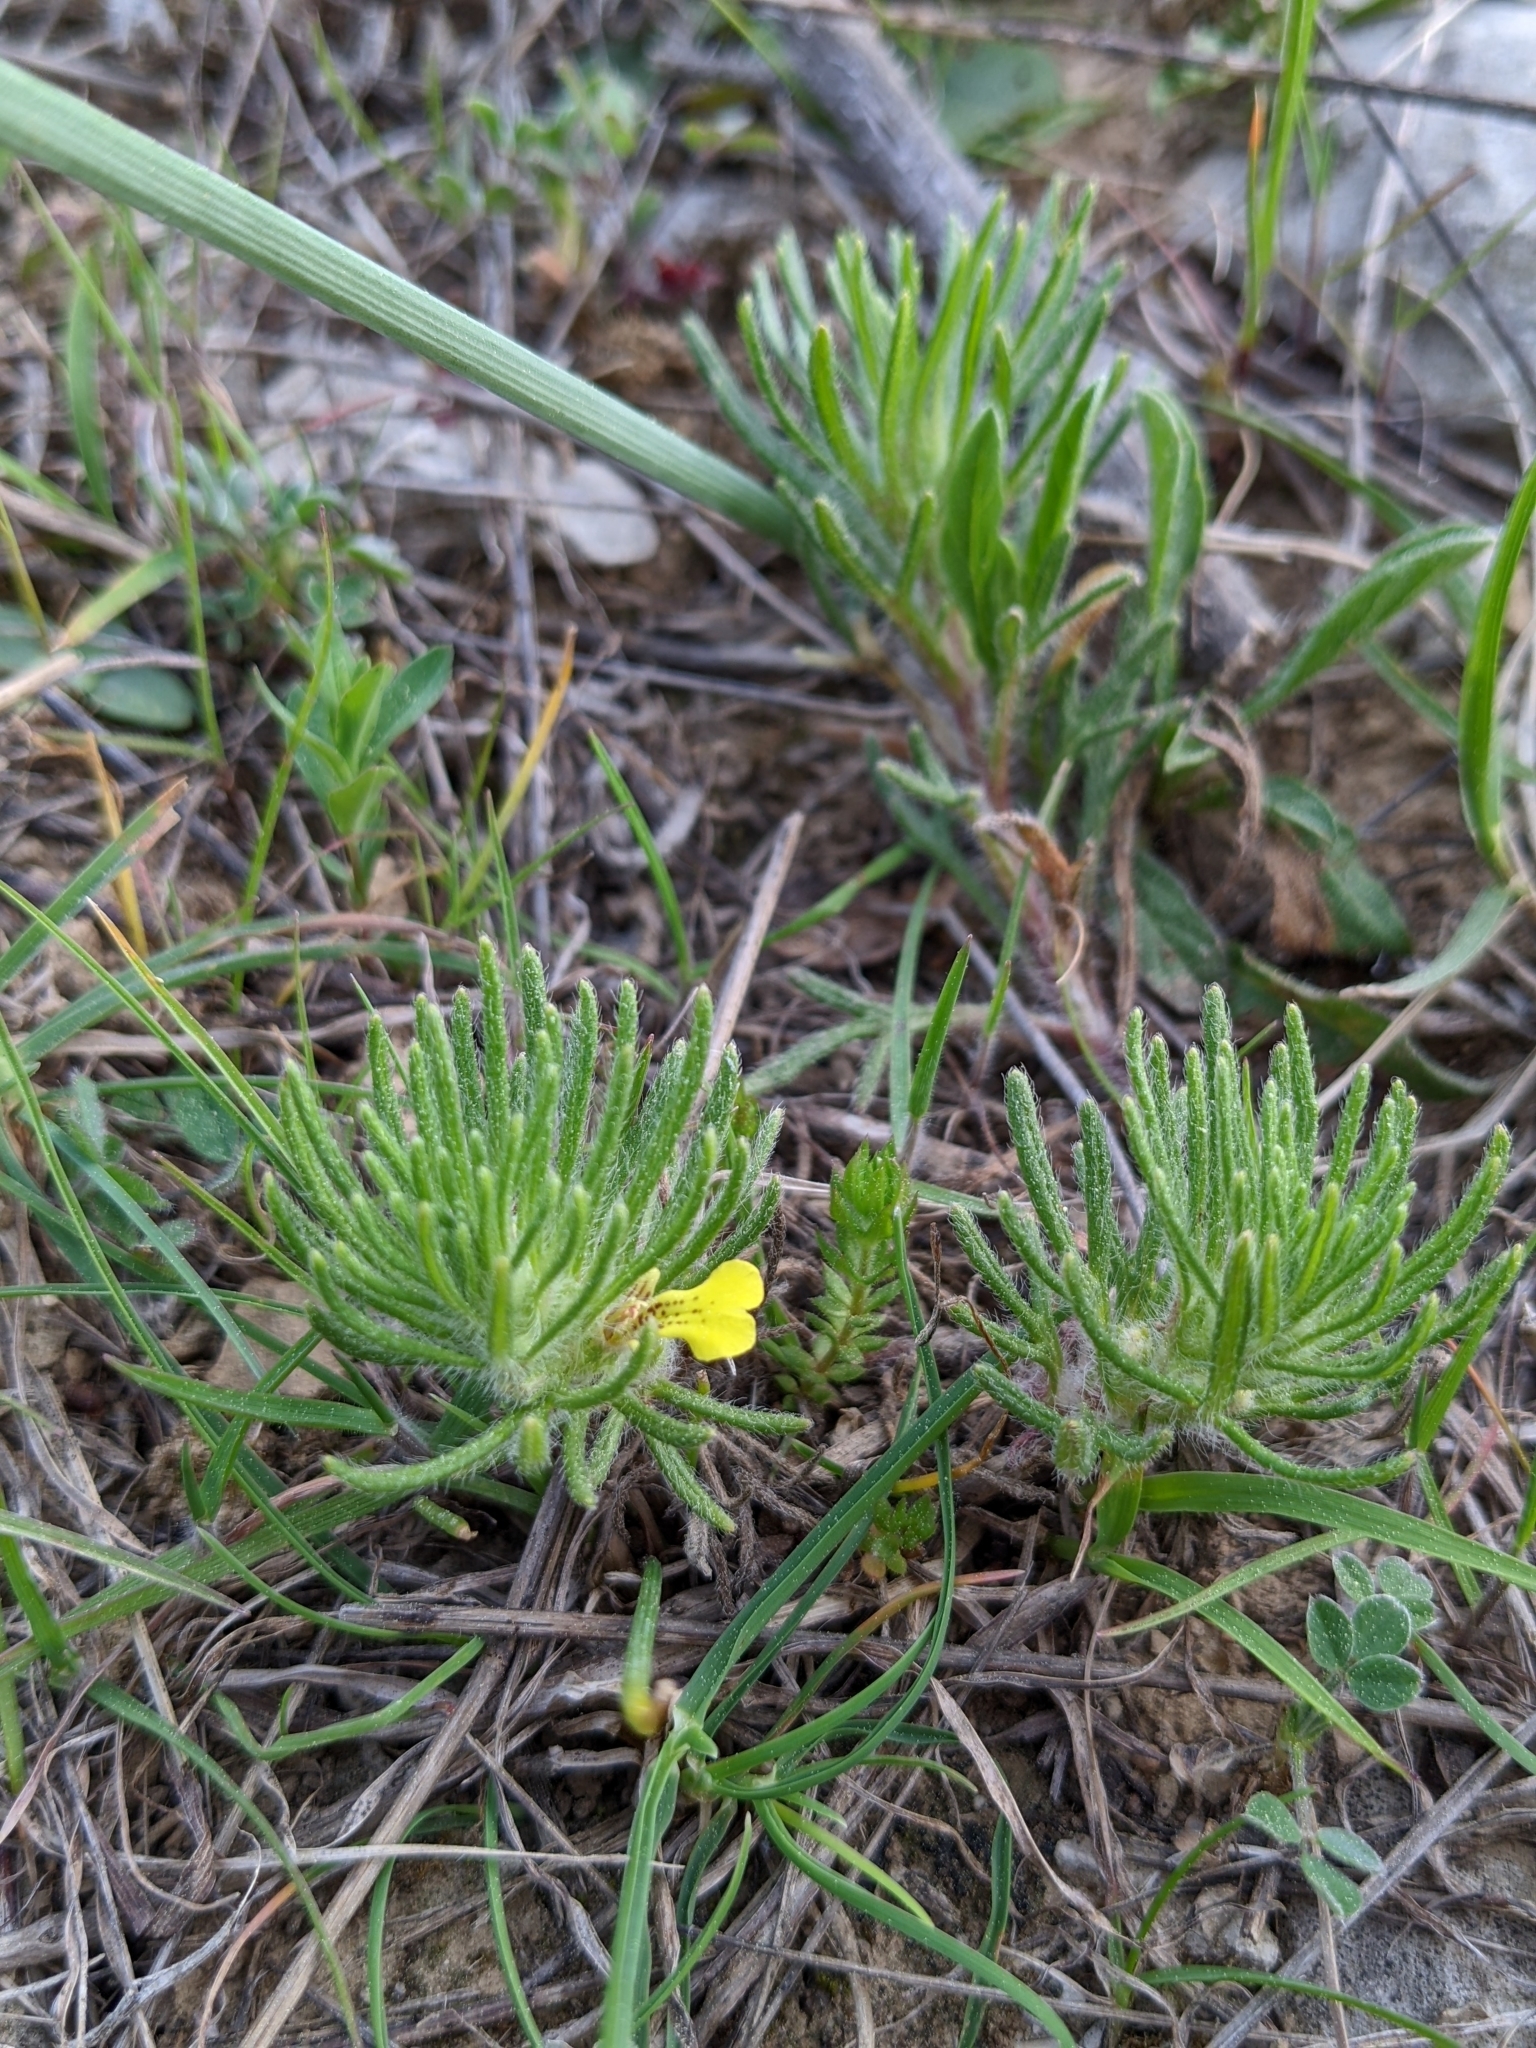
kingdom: Plantae
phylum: Tracheophyta
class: Magnoliopsida
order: Lamiales
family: Lamiaceae
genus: Ajuga
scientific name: Ajuga chamaepitys
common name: Ground-pine
